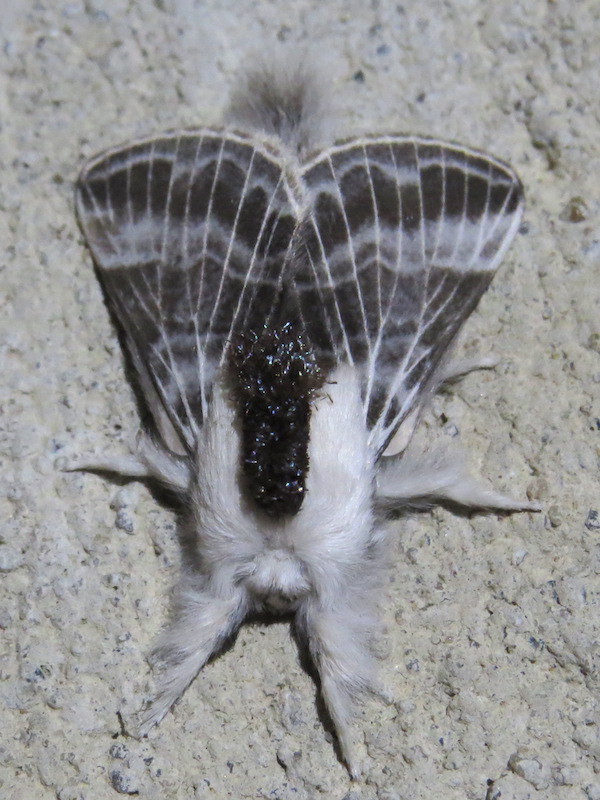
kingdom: Animalia
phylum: Arthropoda
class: Insecta
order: Lepidoptera
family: Lasiocampidae
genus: Tolype
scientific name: Tolype velleda
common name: Large tolype moth
